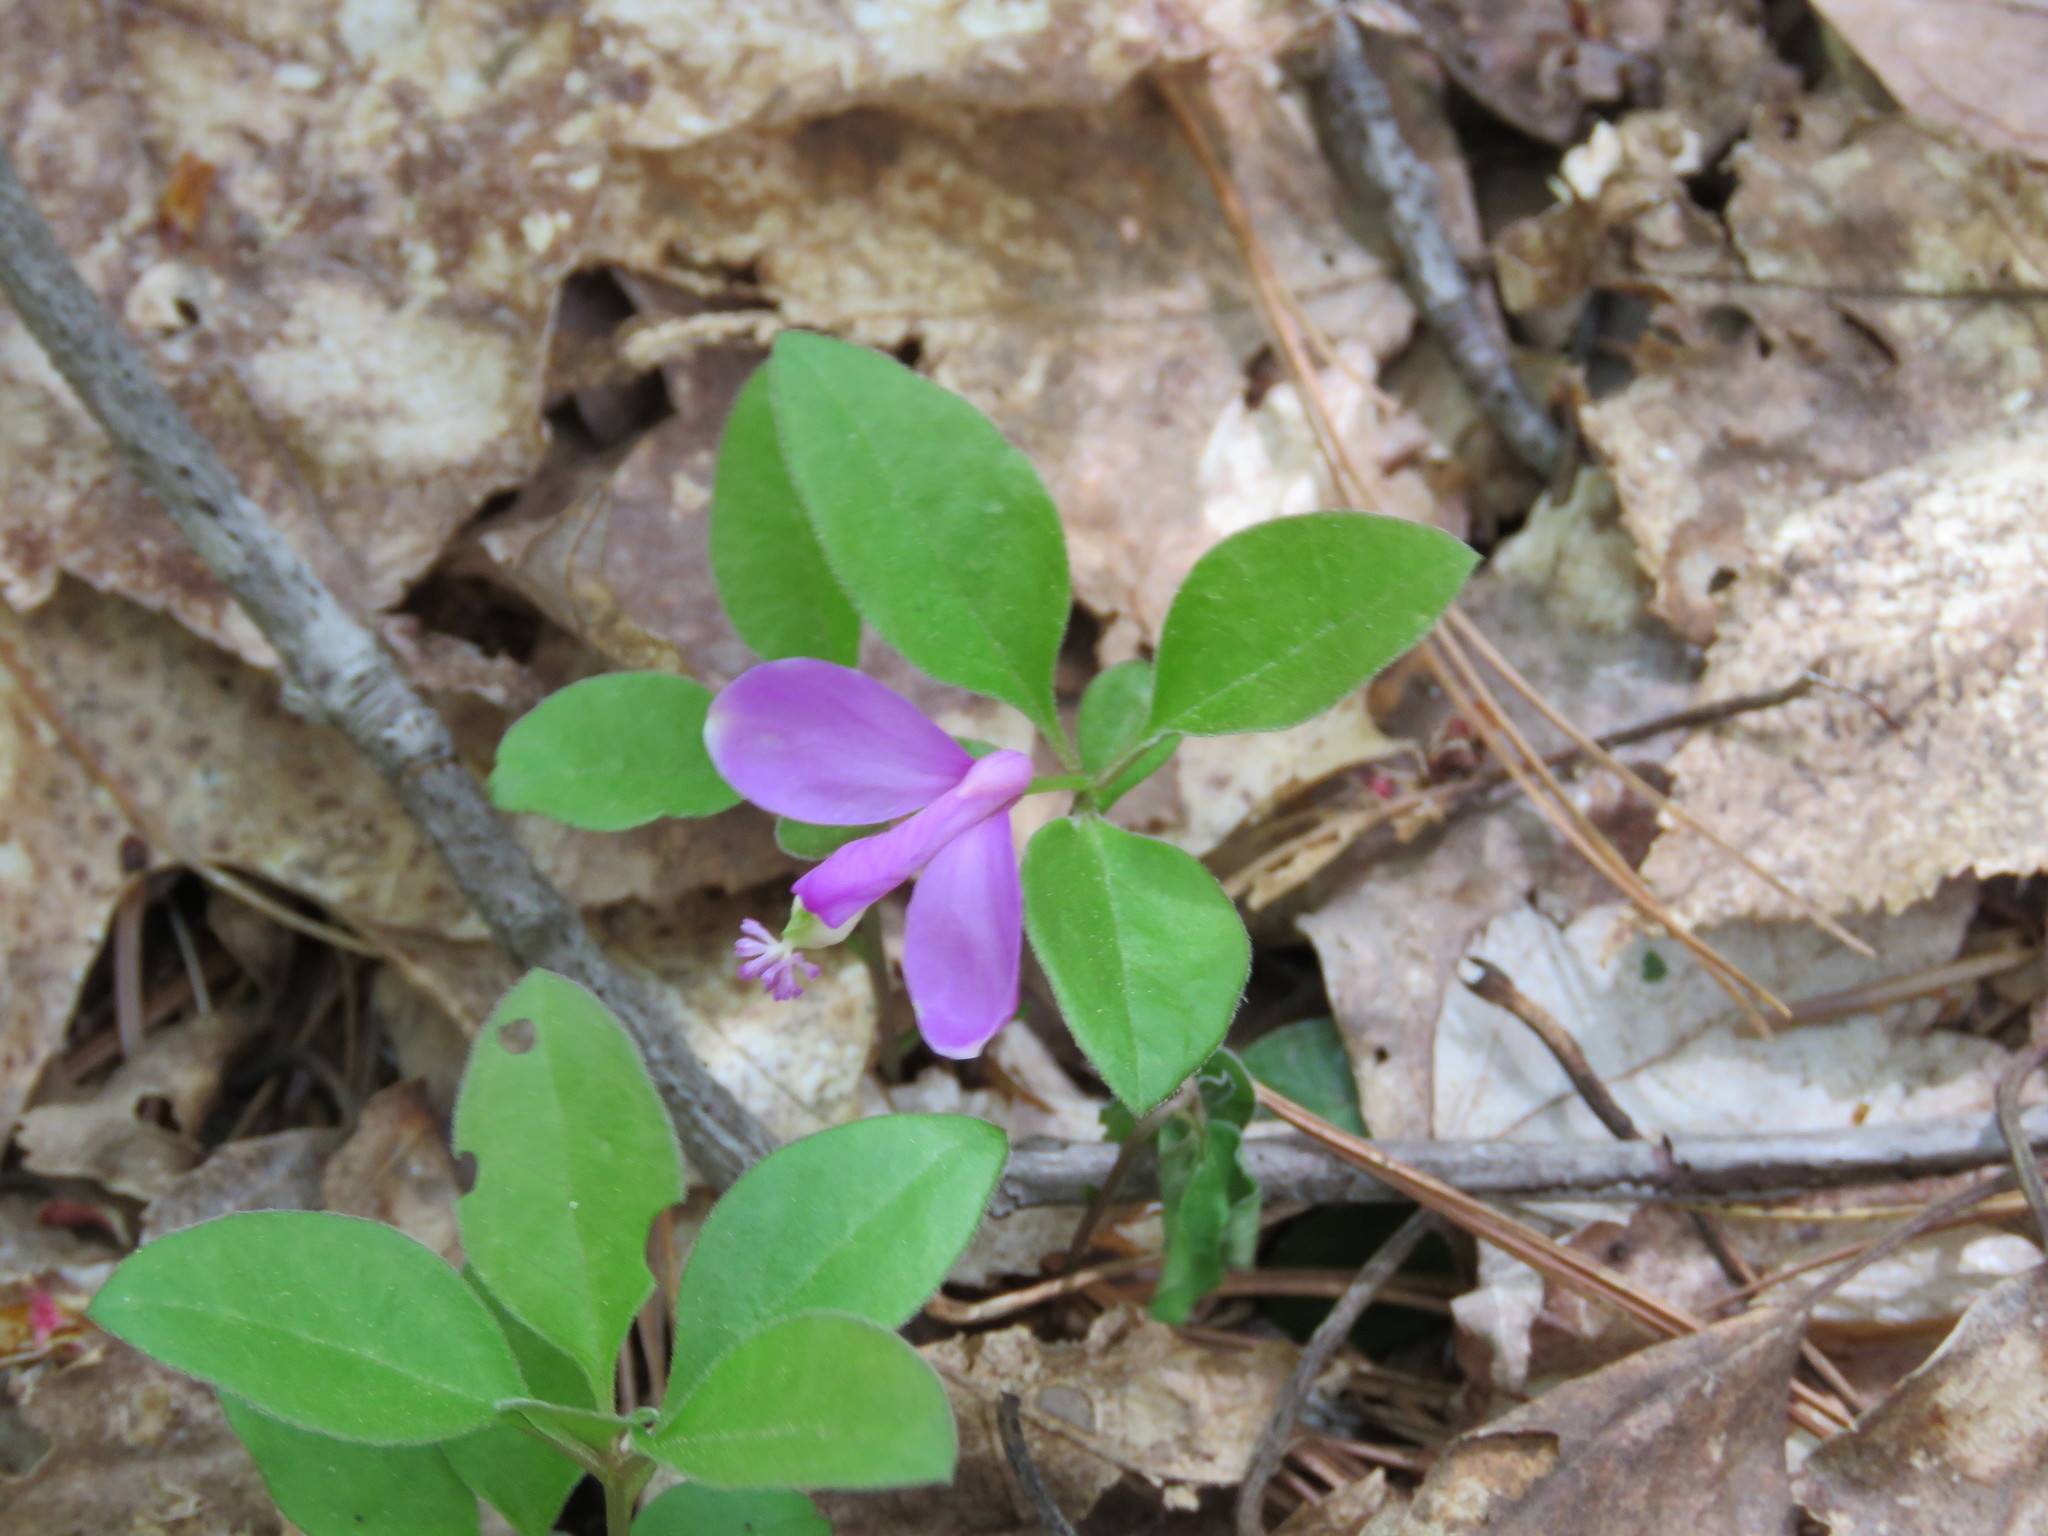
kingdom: Plantae
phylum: Tracheophyta
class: Magnoliopsida
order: Fabales
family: Polygalaceae
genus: Polygaloides
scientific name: Polygaloides paucifolia
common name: Bird-on-the-wing
